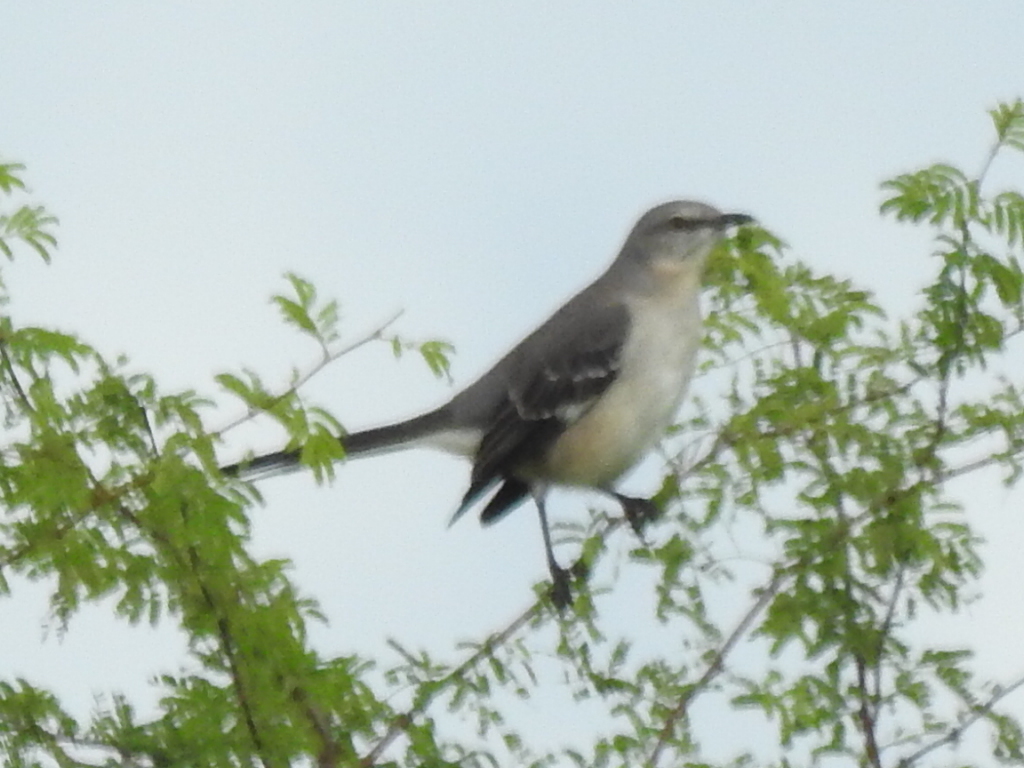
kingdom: Animalia
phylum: Chordata
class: Aves
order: Passeriformes
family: Mimidae
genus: Mimus
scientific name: Mimus polyglottos
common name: Northern mockingbird
